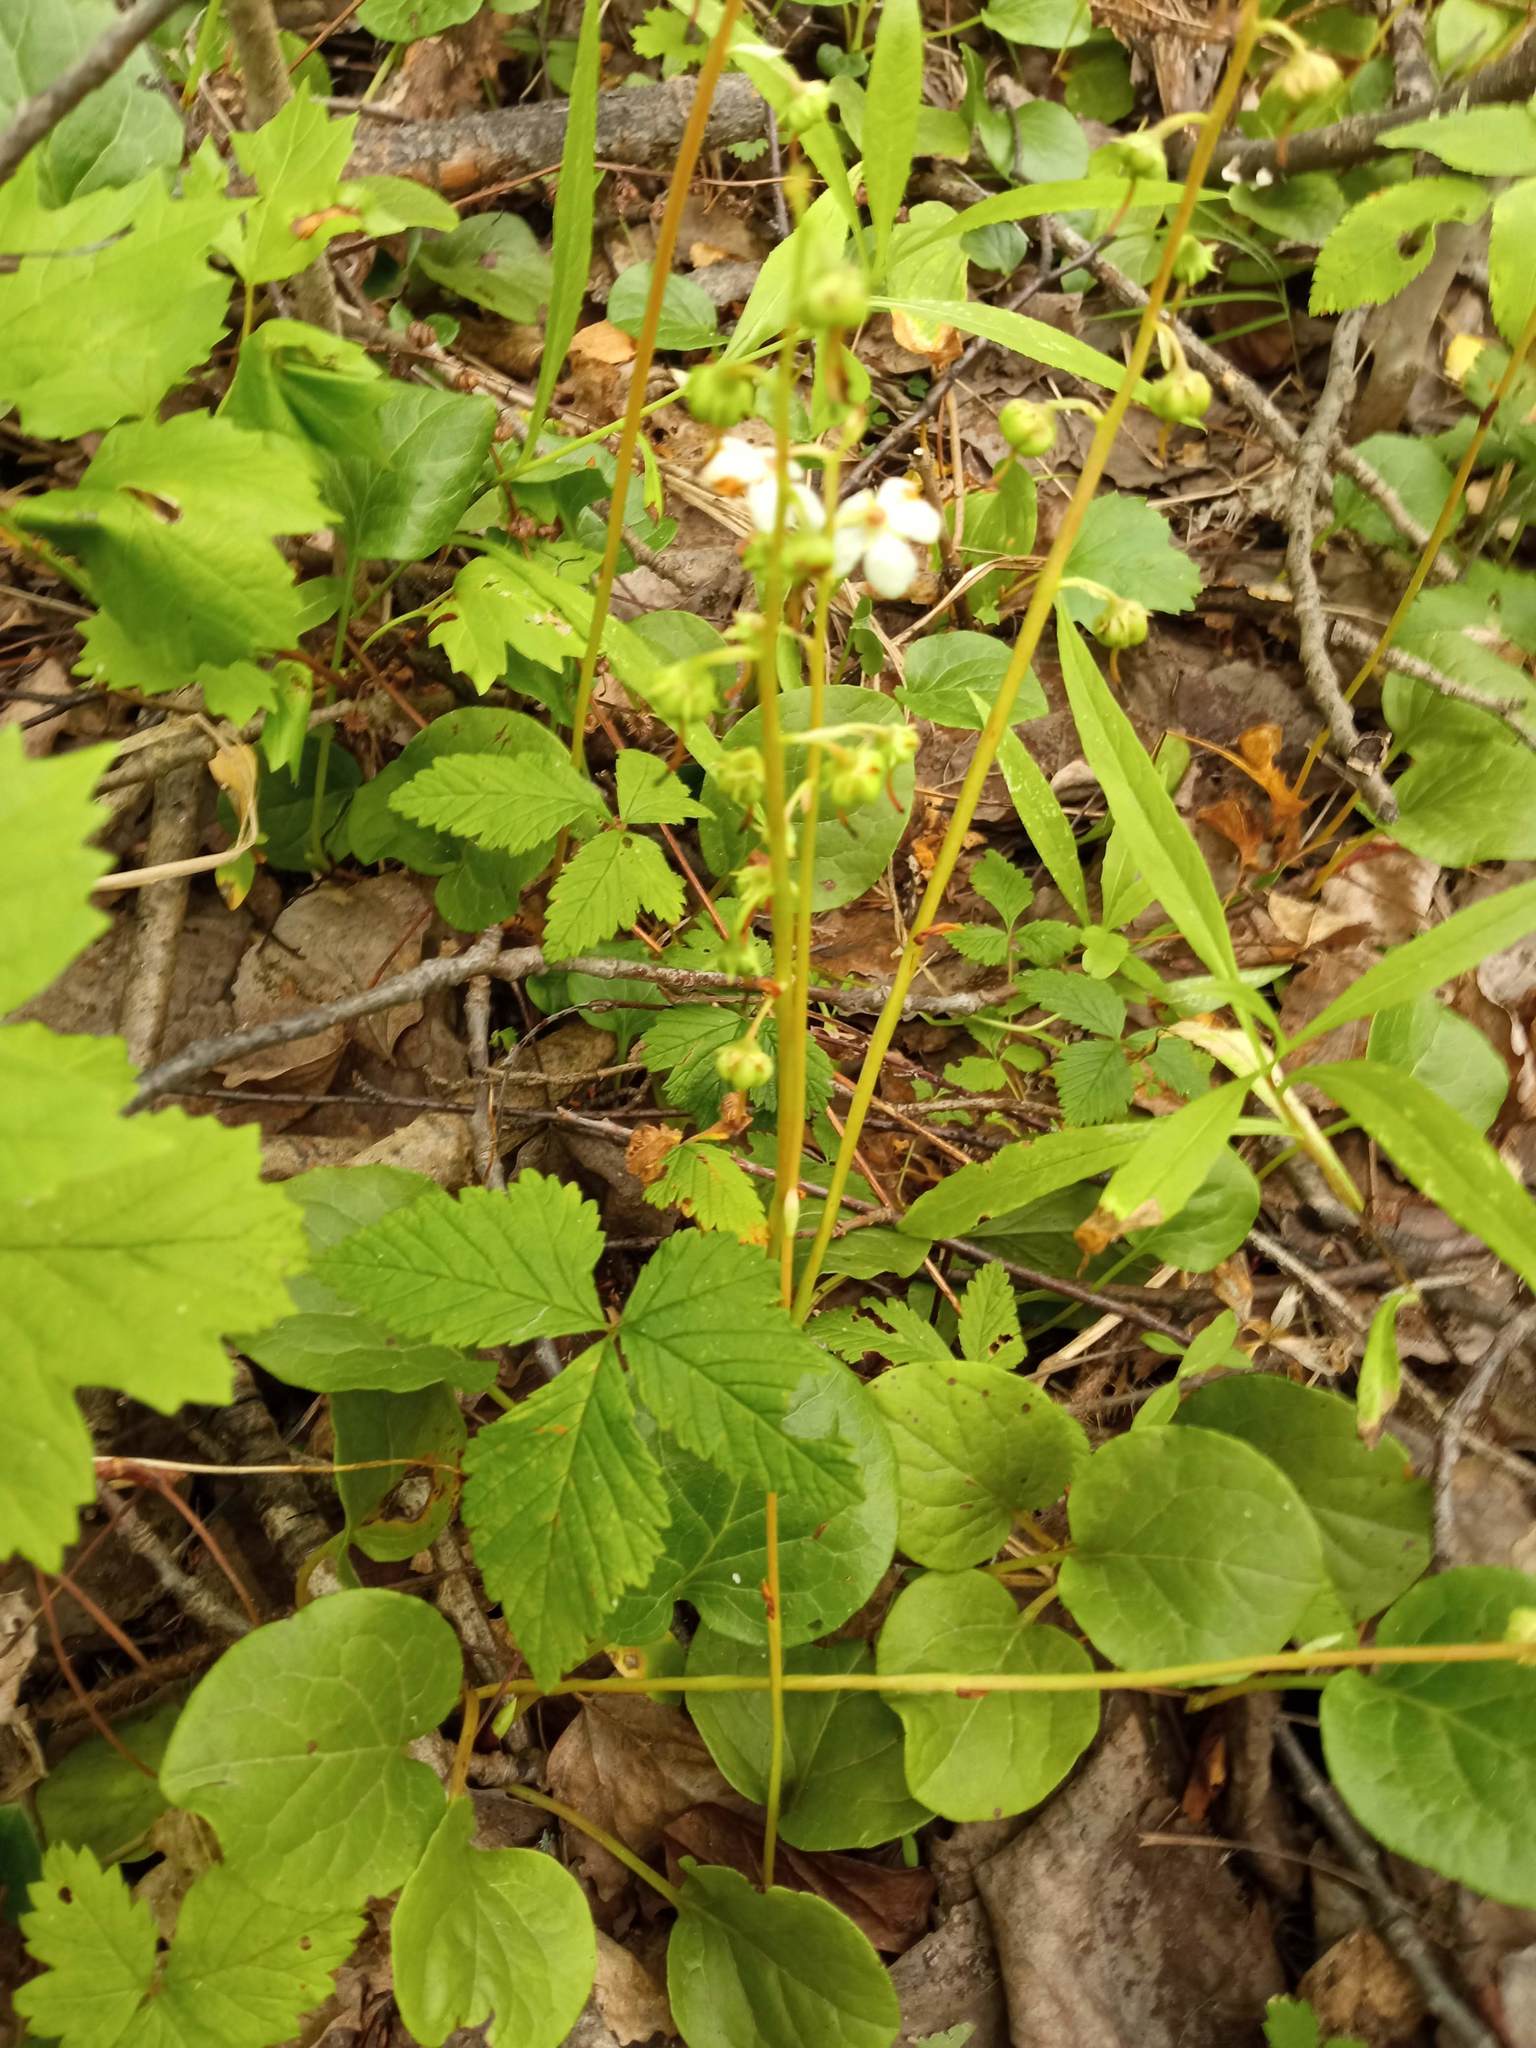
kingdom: Plantae
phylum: Tracheophyta
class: Magnoliopsida
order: Ericales
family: Ericaceae
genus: Pyrola
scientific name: Pyrola rotundifolia
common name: Round-leaved wintergreen
